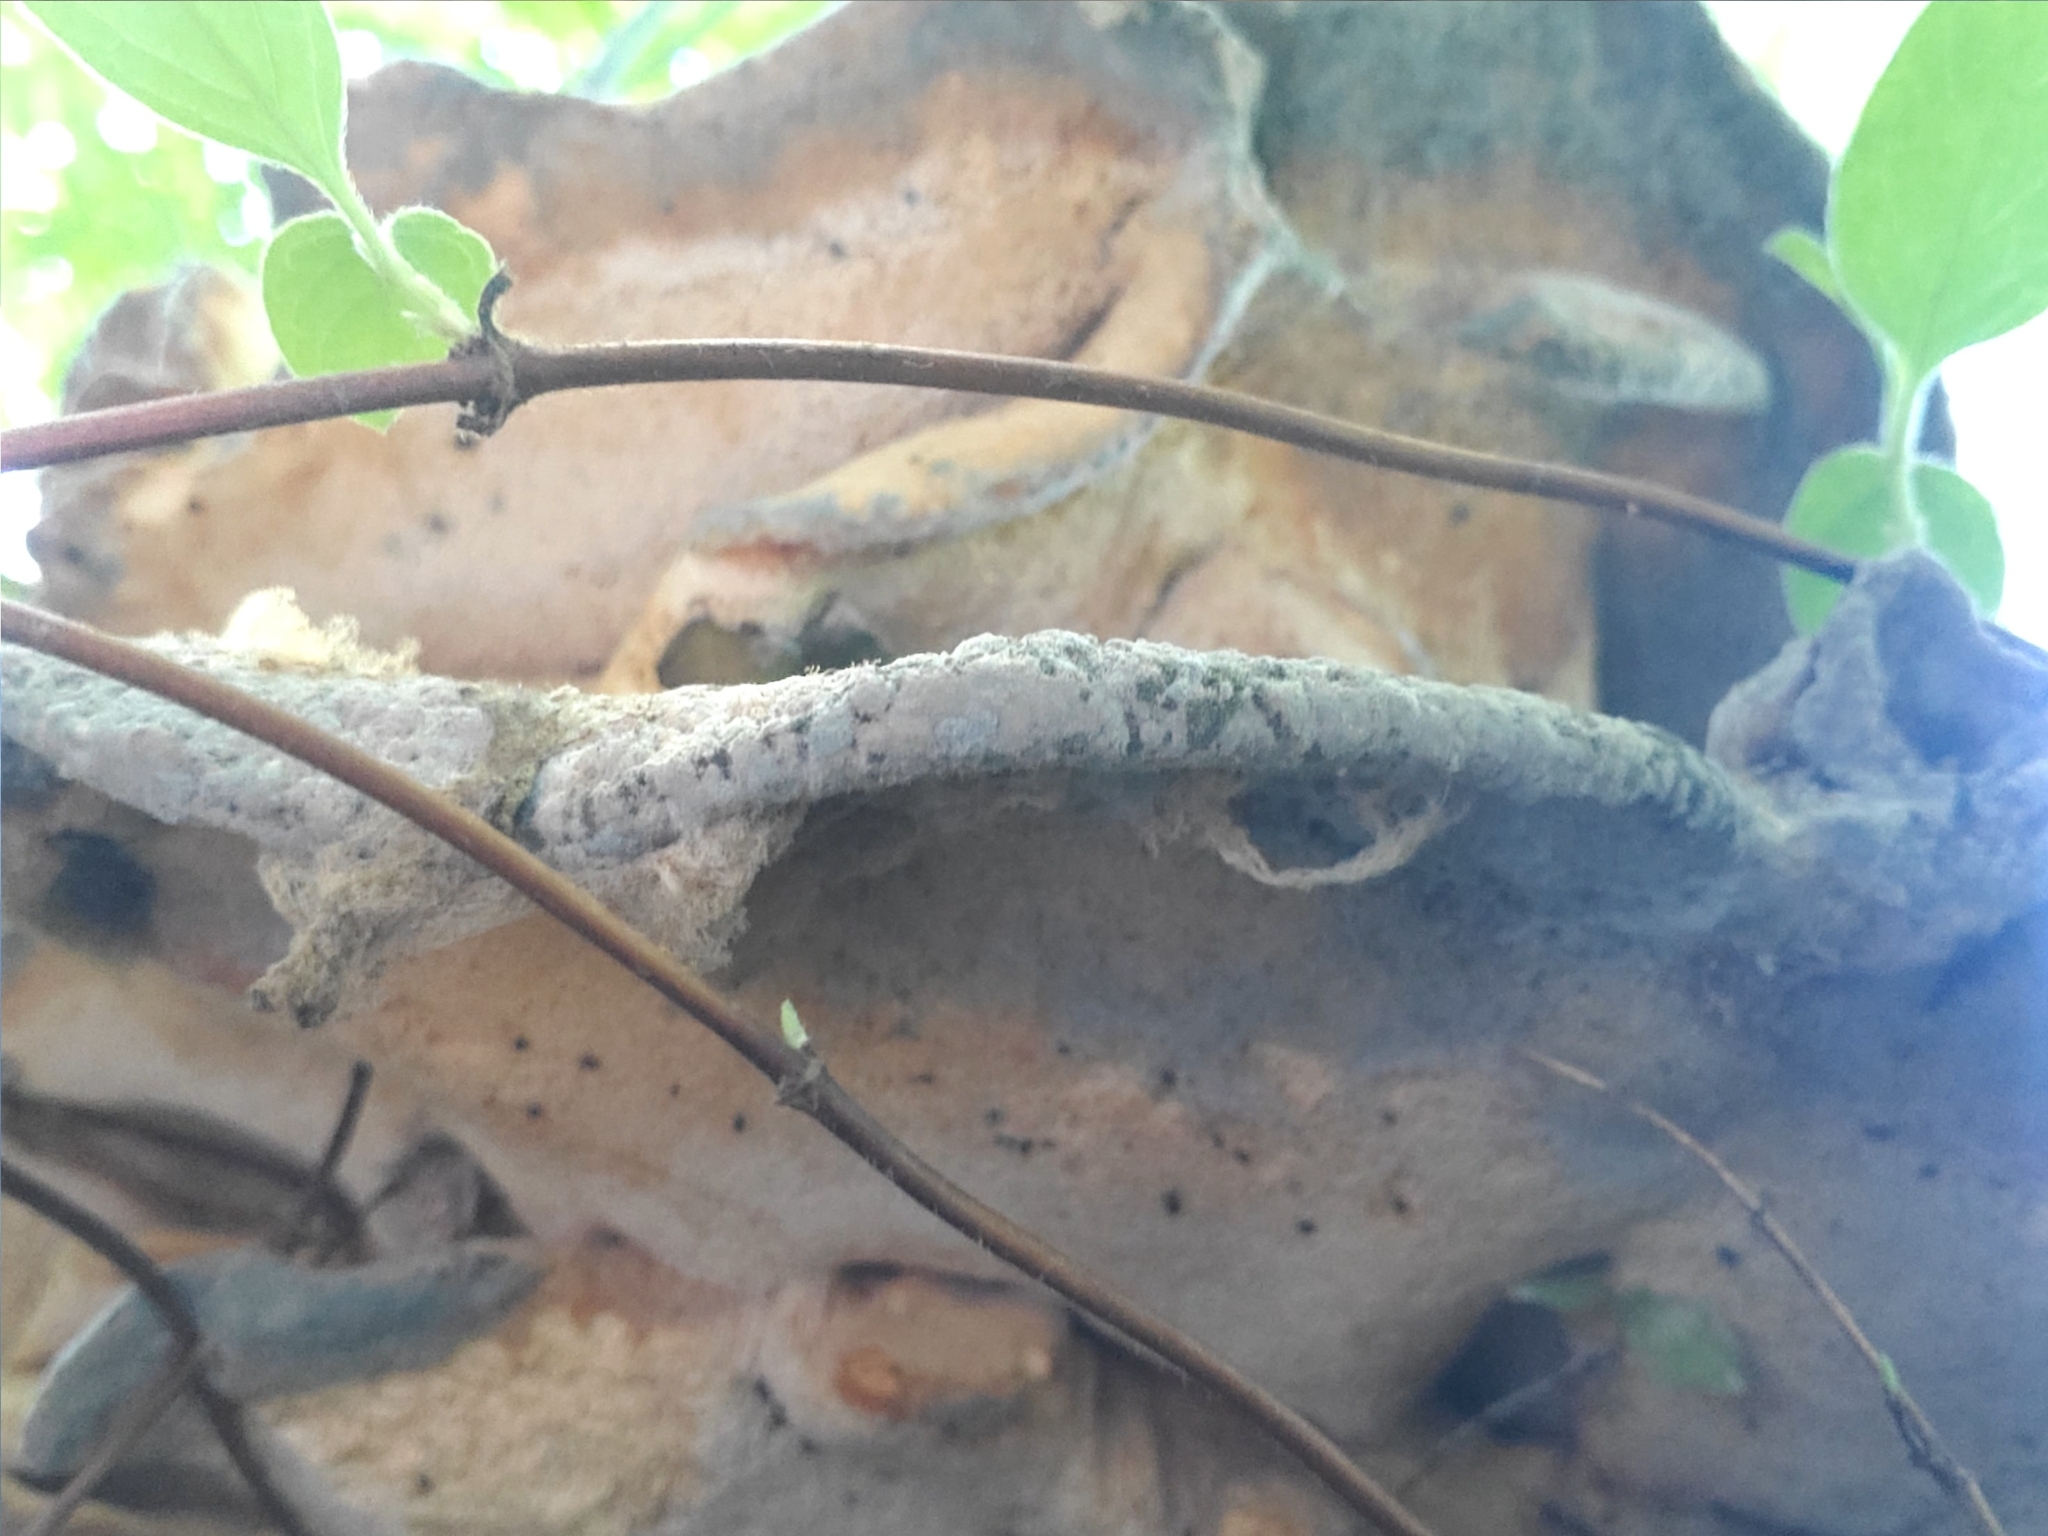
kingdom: Fungi
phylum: Basidiomycota
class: Agaricomycetes
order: Russulales
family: Bondarzewiaceae
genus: Bondarzewia
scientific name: Bondarzewia berkeleyi
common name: Berkeley's polypore
